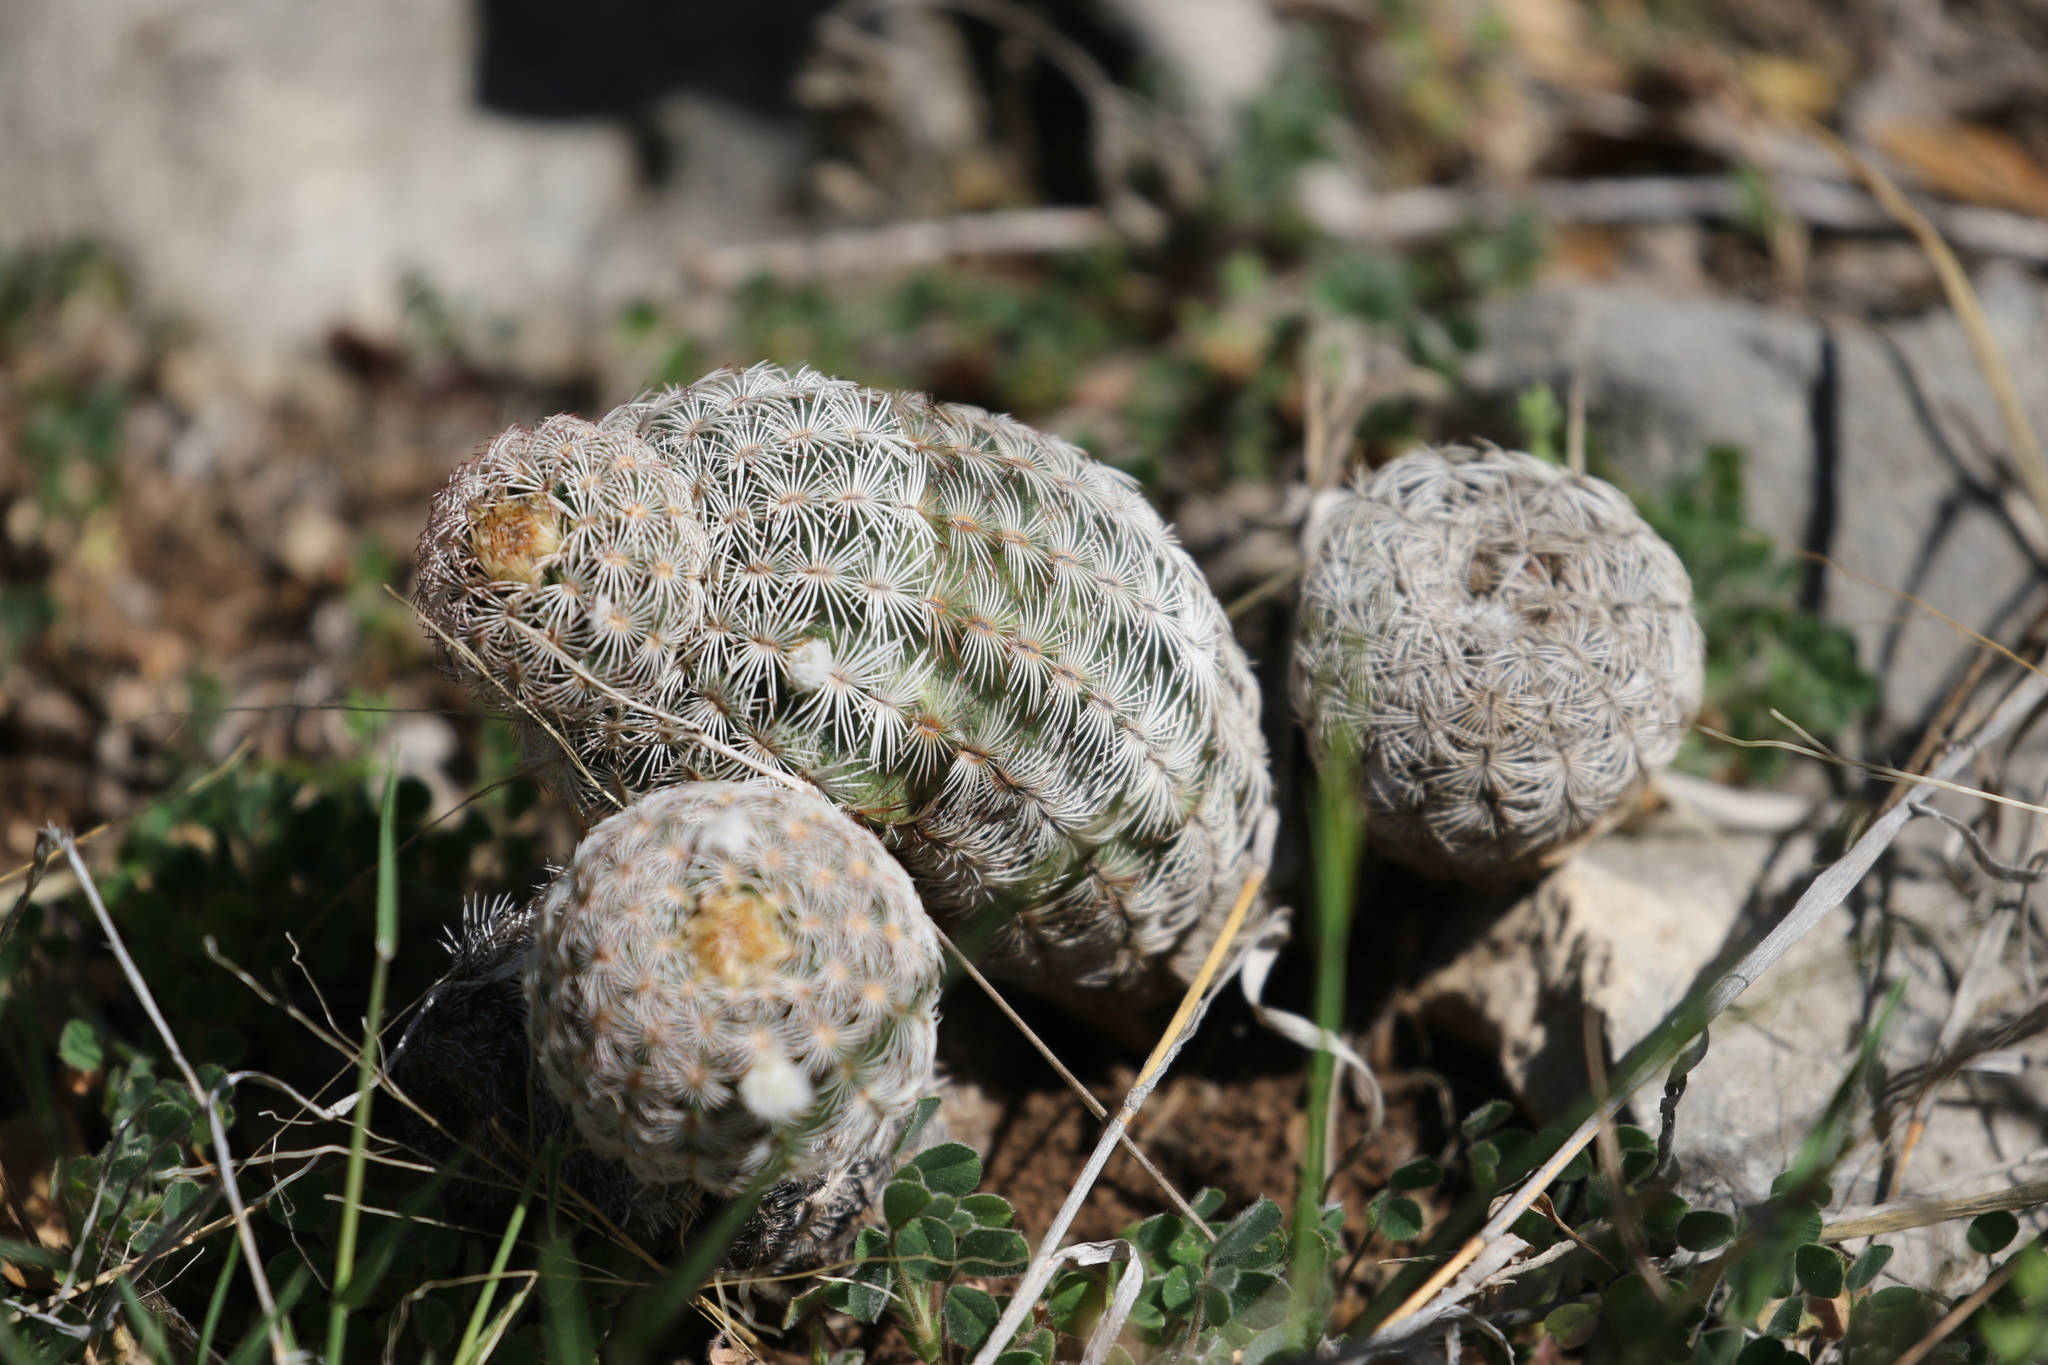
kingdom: Plantae
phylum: Tracheophyta
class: Magnoliopsida
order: Caryophyllales
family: Cactaceae
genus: Echinocereus
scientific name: Echinocereus reichenbachii
